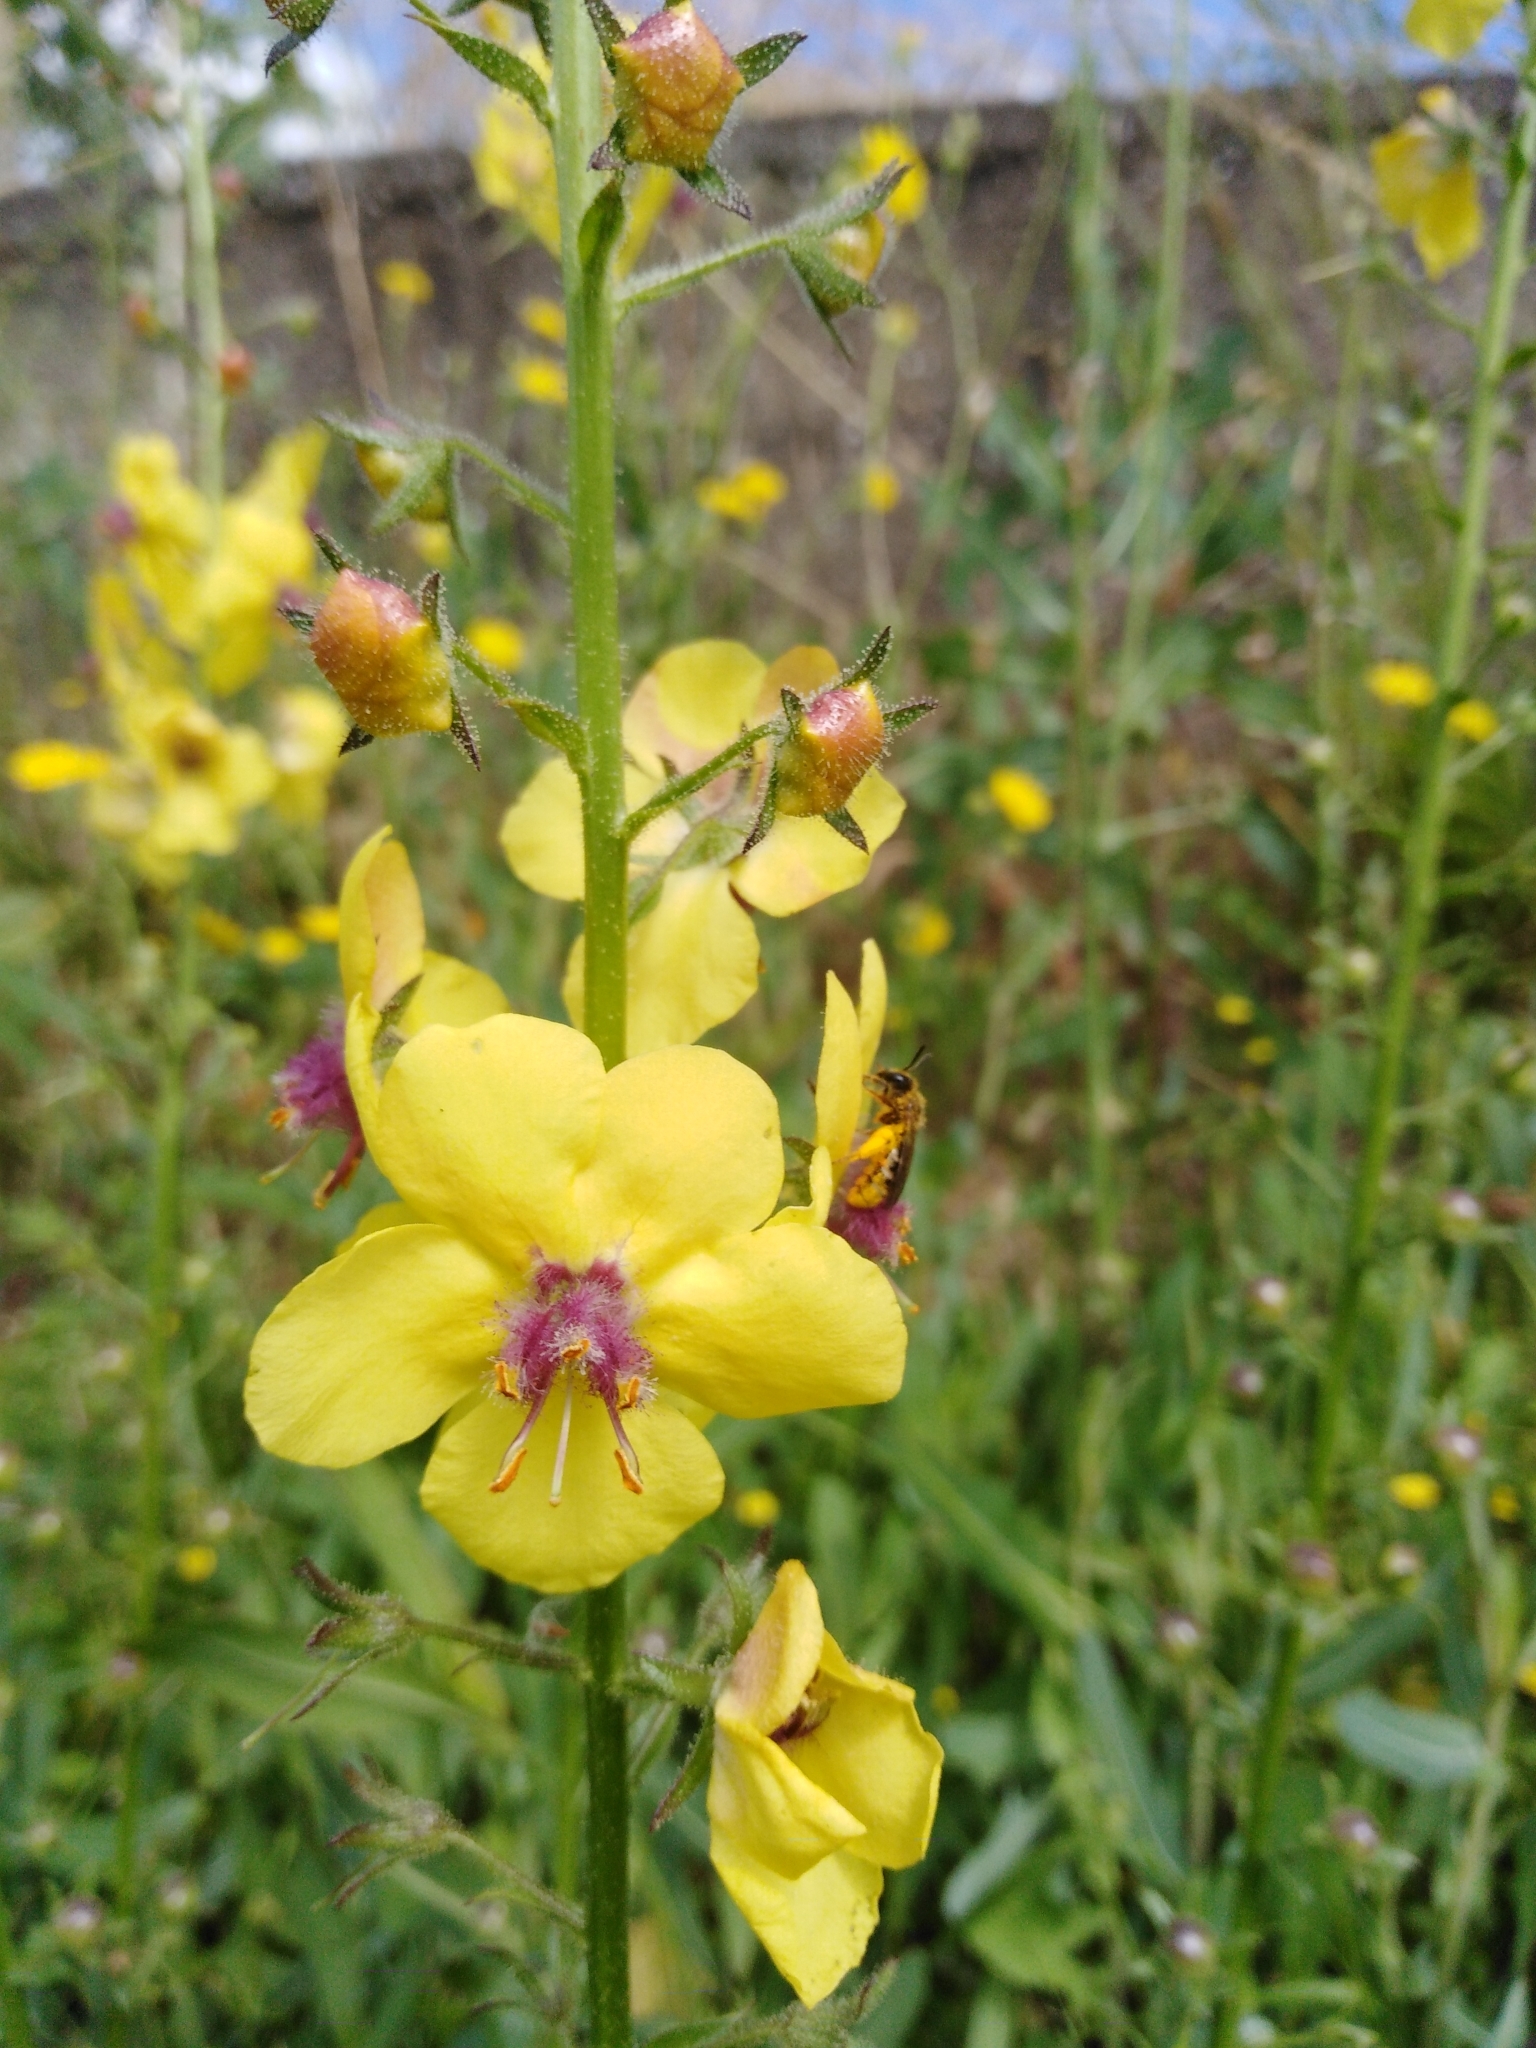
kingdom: Plantae
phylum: Tracheophyta
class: Magnoliopsida
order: Lamiales
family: Scrophulariaceae
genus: Verbascum
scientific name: Verbascum blattaria
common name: Moth mullein
